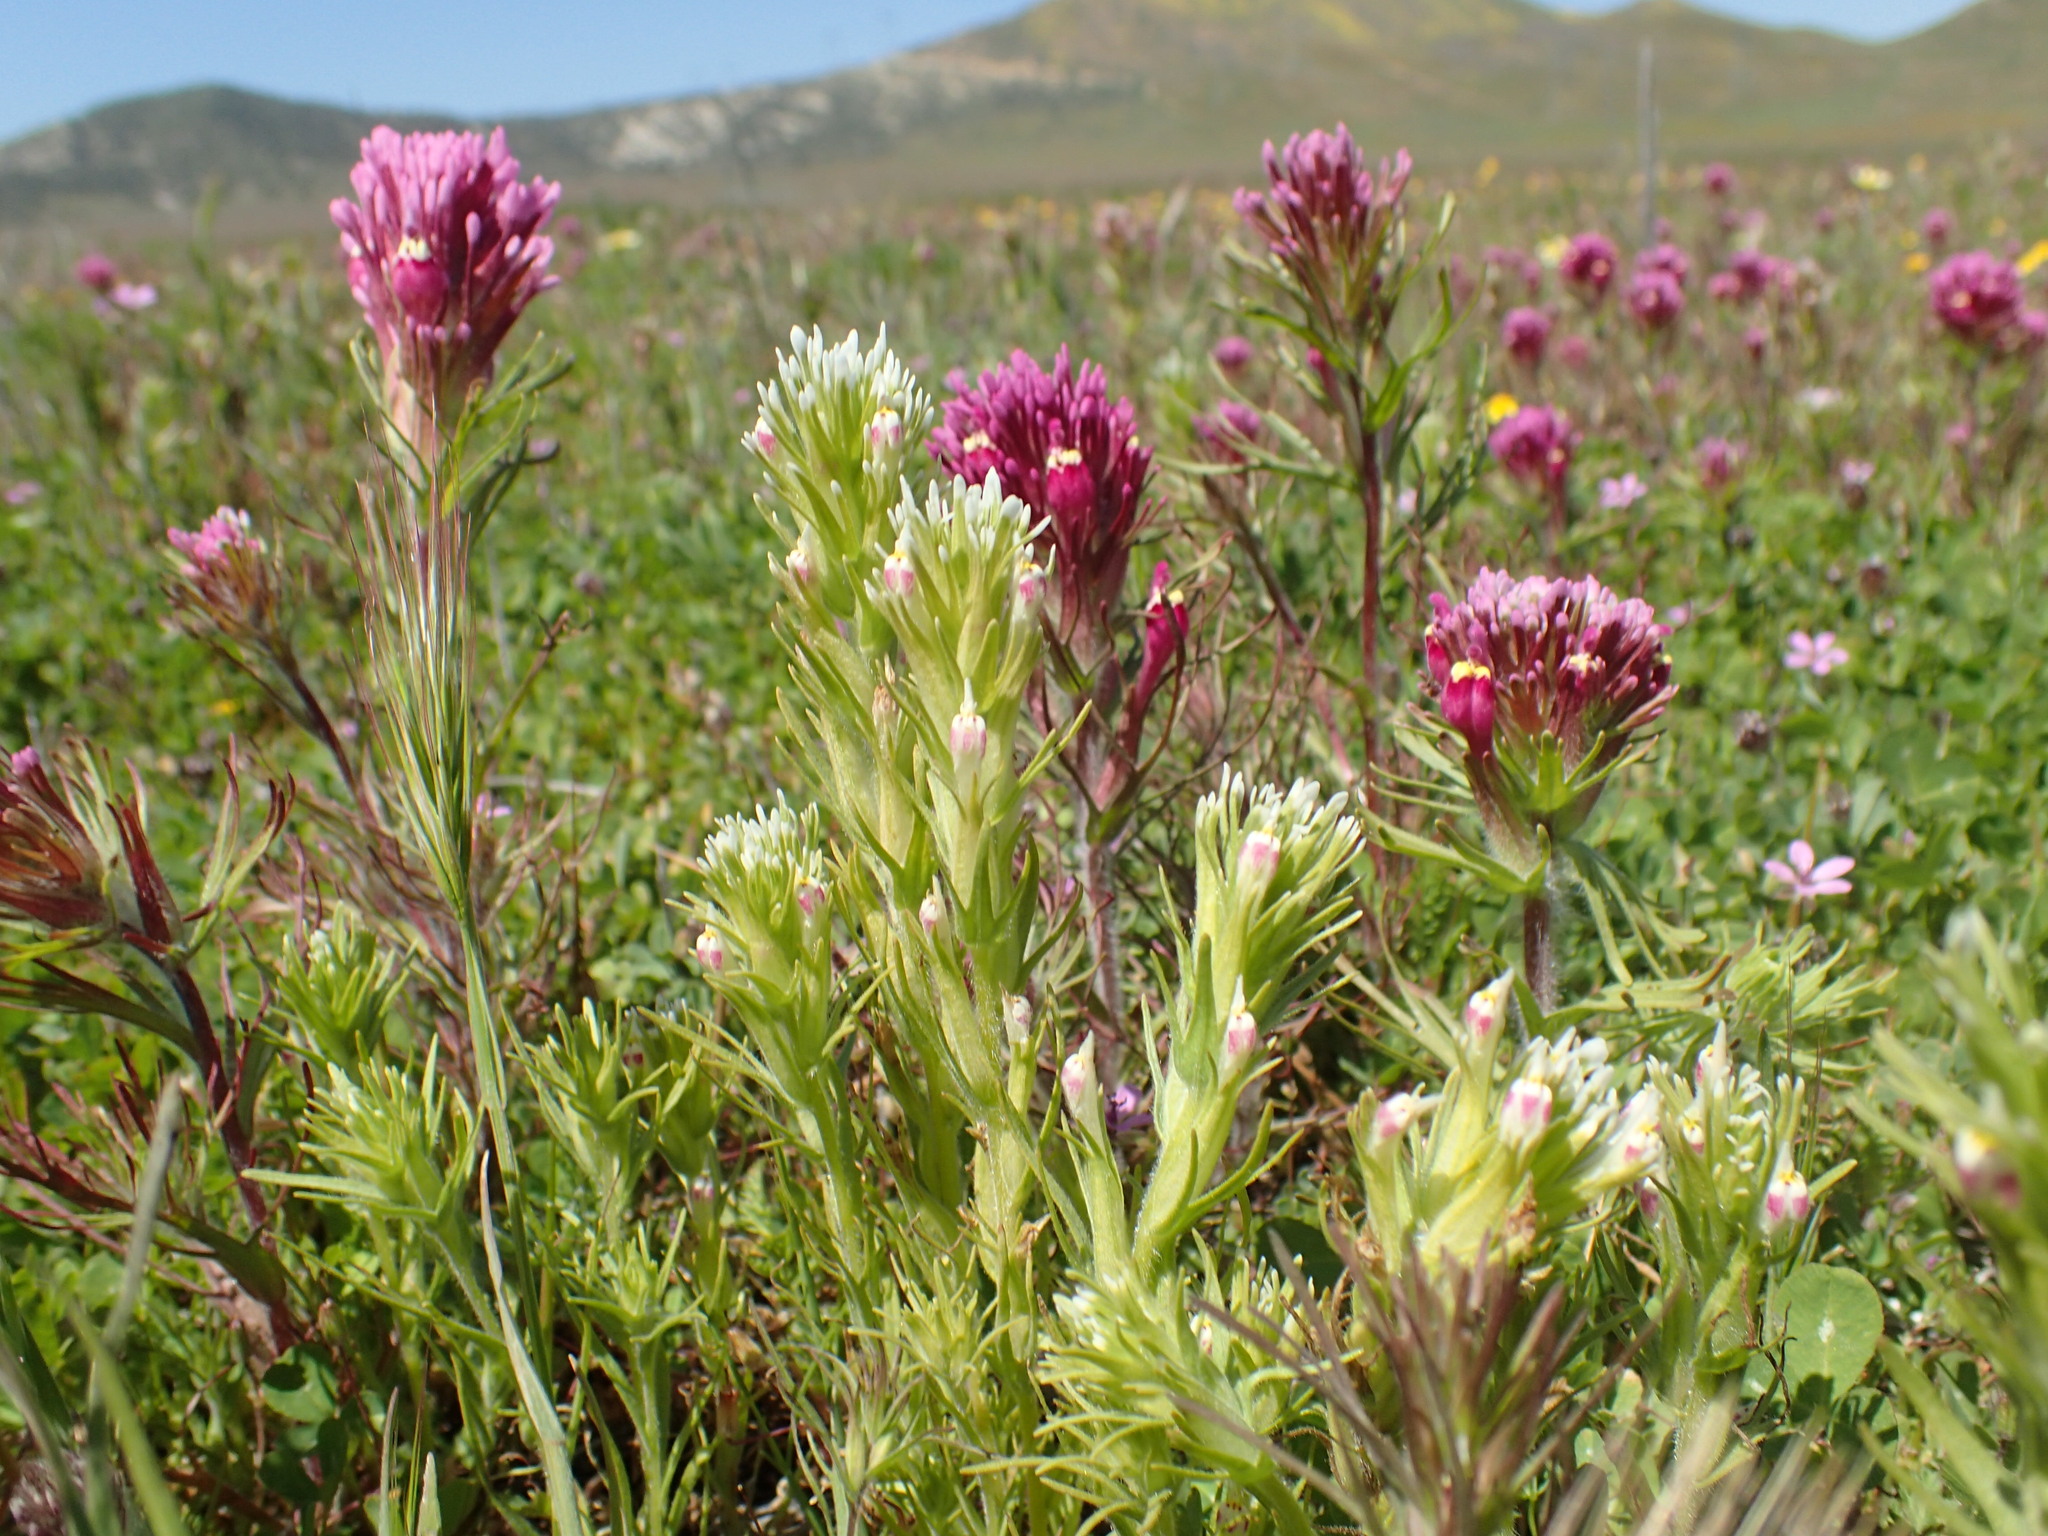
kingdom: Plantae
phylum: Tracheophyta
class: Magnoliopsida
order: Lamiales
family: Orobanchaceae
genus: Castilleja
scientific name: Castilleja brevistyla
